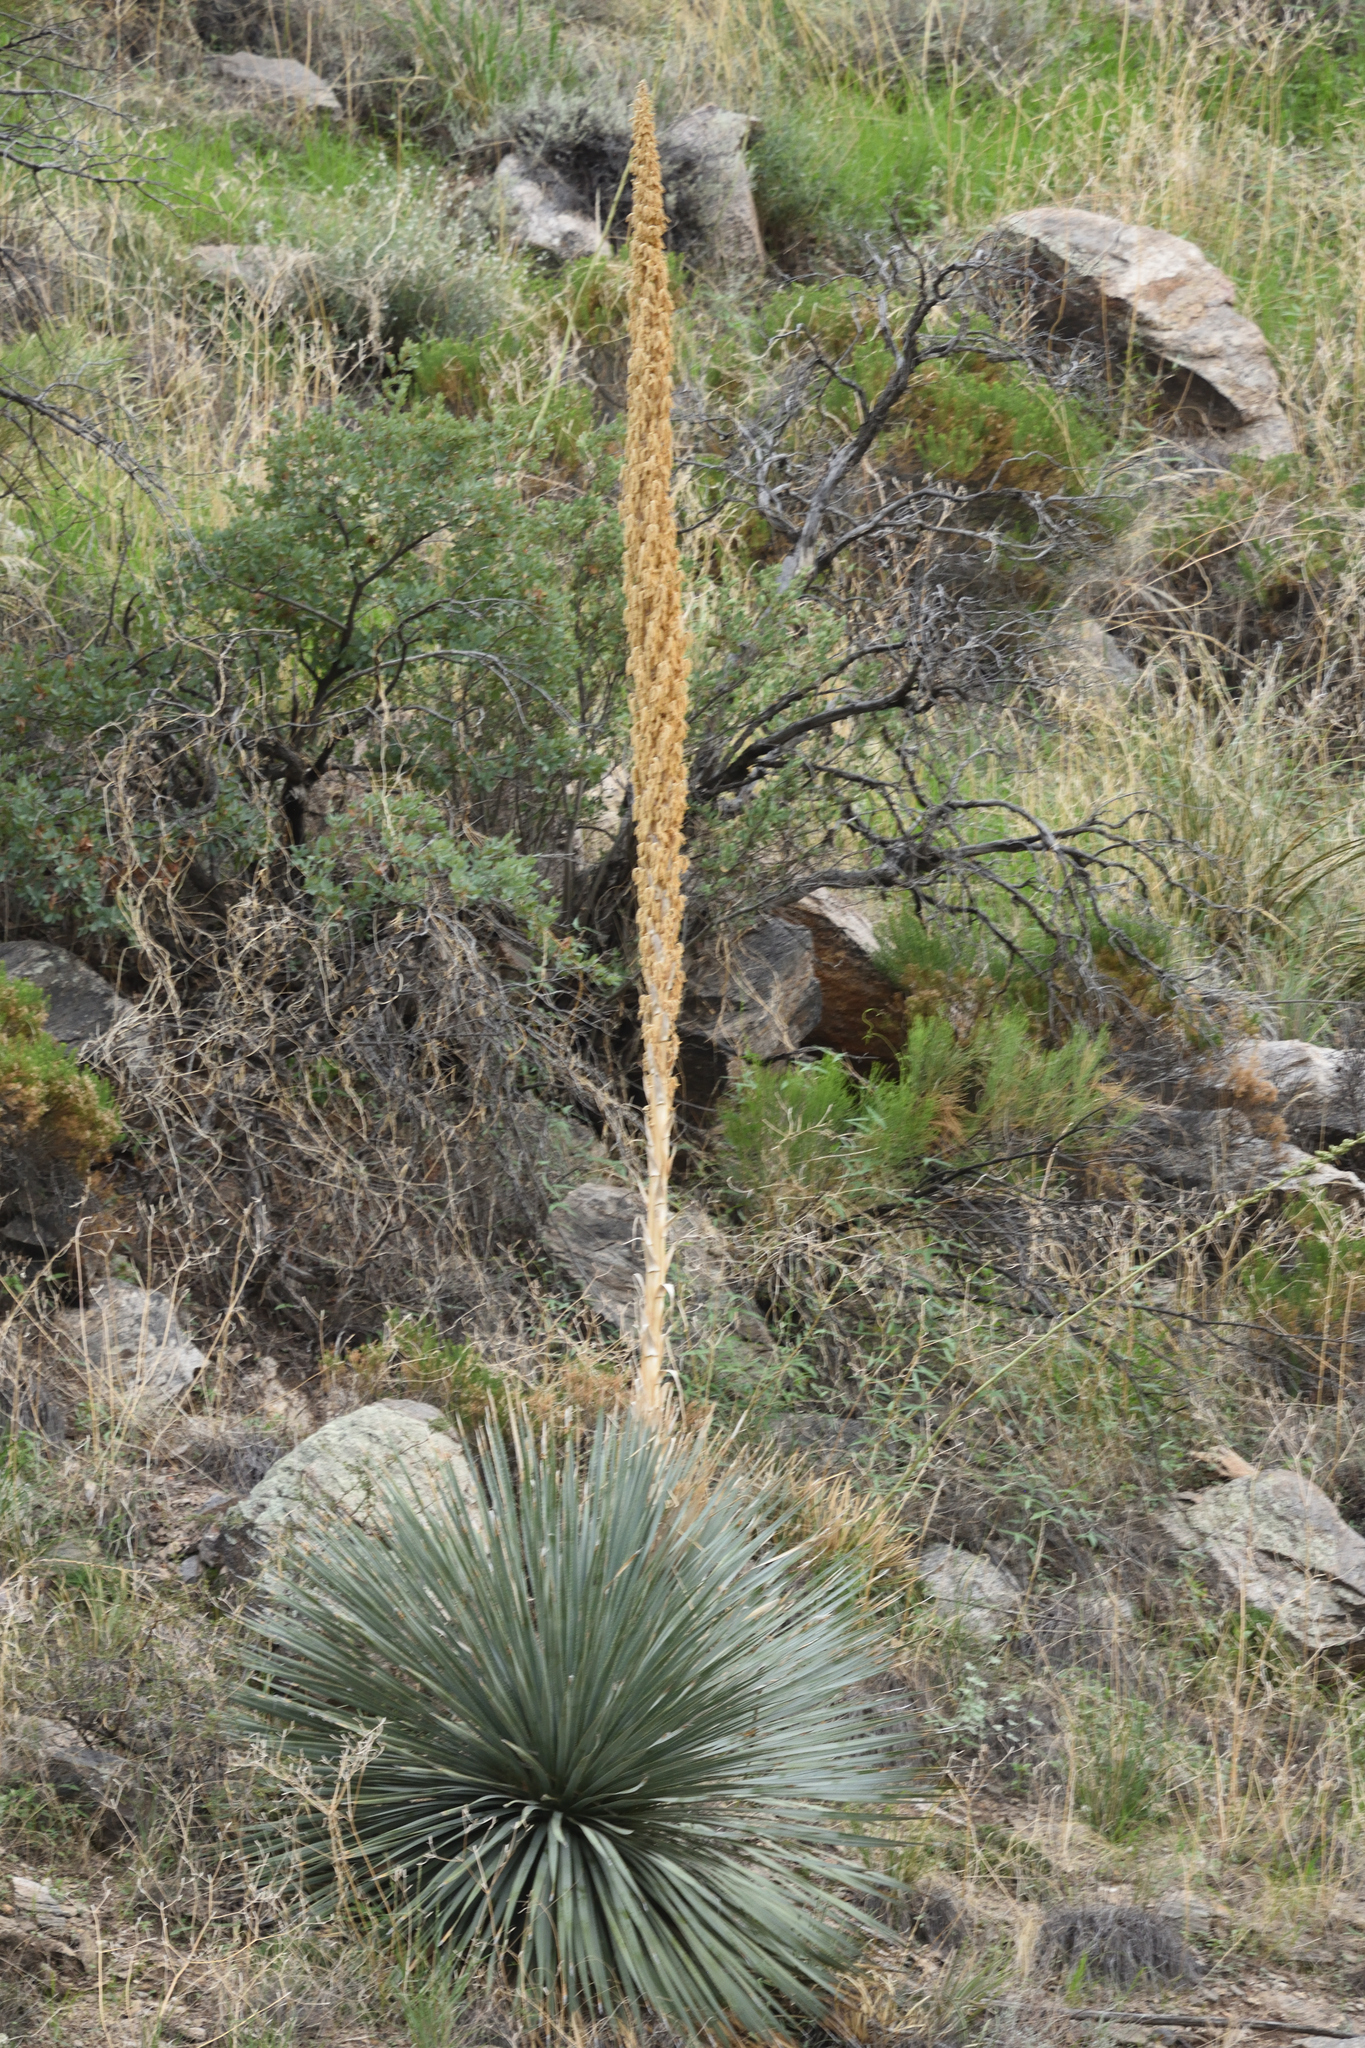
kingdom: Plantae
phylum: Tracheophyta
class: Liliopsida
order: Asparagales
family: Asparagaceae
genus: Dasylirion
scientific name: Dasylirion wheeleri
